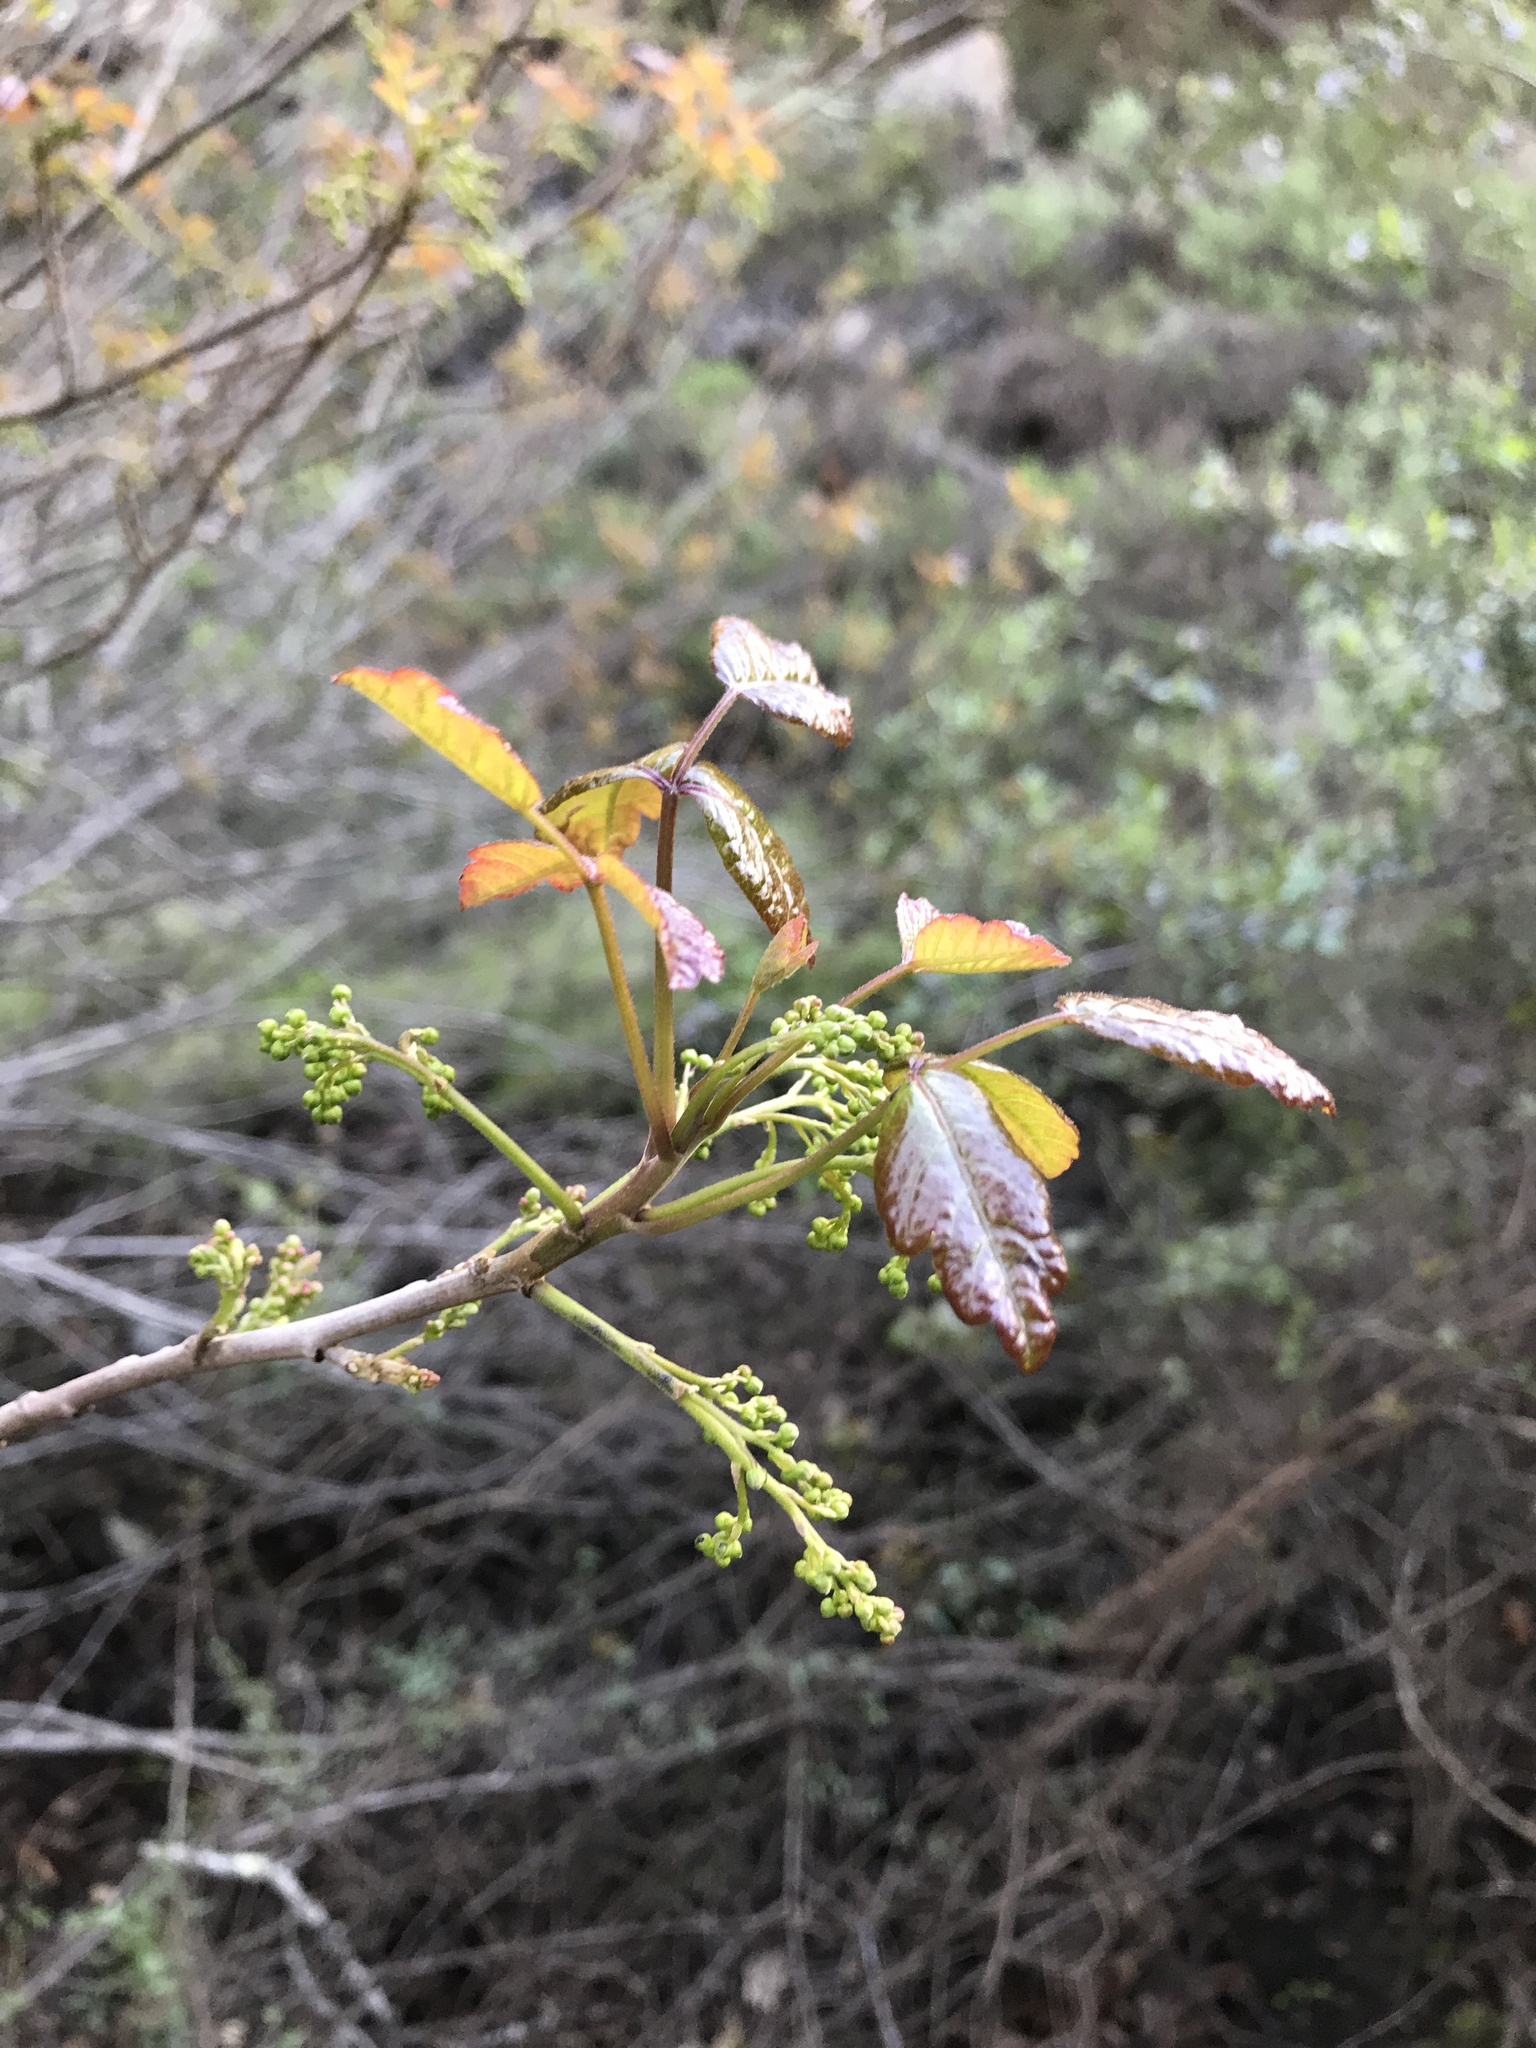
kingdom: Plantae
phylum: Tracheophyta
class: Magnoliopsida
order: Sapindales
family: Anacardiaceae
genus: Toxicodendron
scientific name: Toxicodendron diversilobum
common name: Pacific poison-oak
